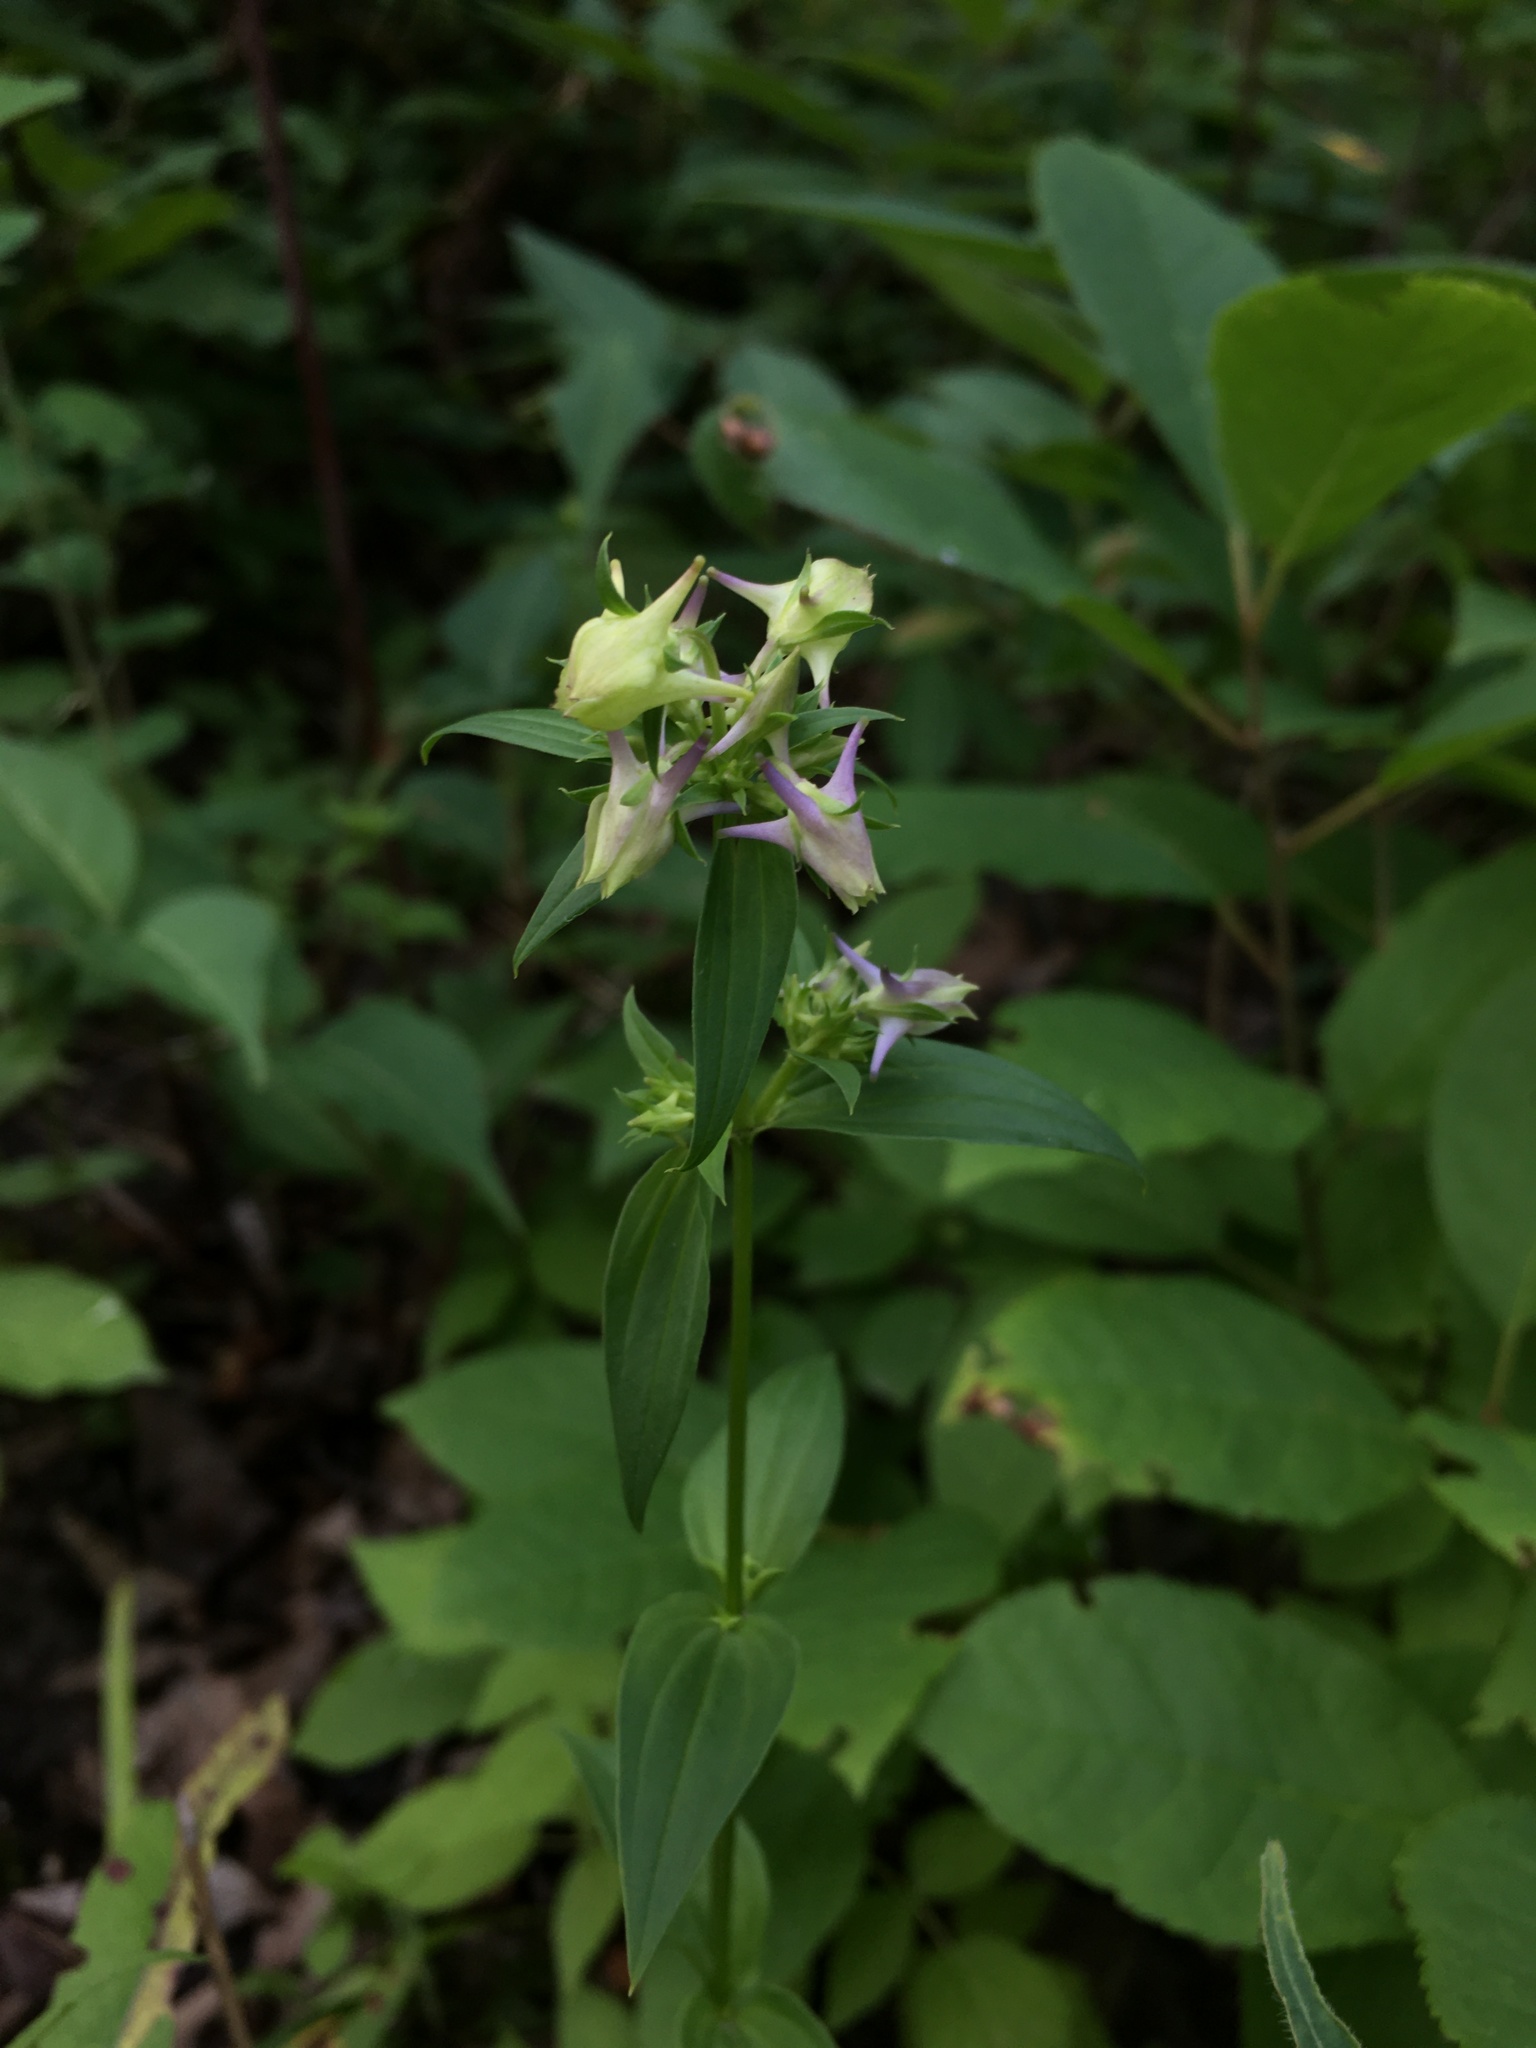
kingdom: Plantae
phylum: Tracheophyta
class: Magnoliopsida
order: Gentianales
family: Gentianaceae
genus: Halenia
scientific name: Halenia deflexa
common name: American spurred gentian
